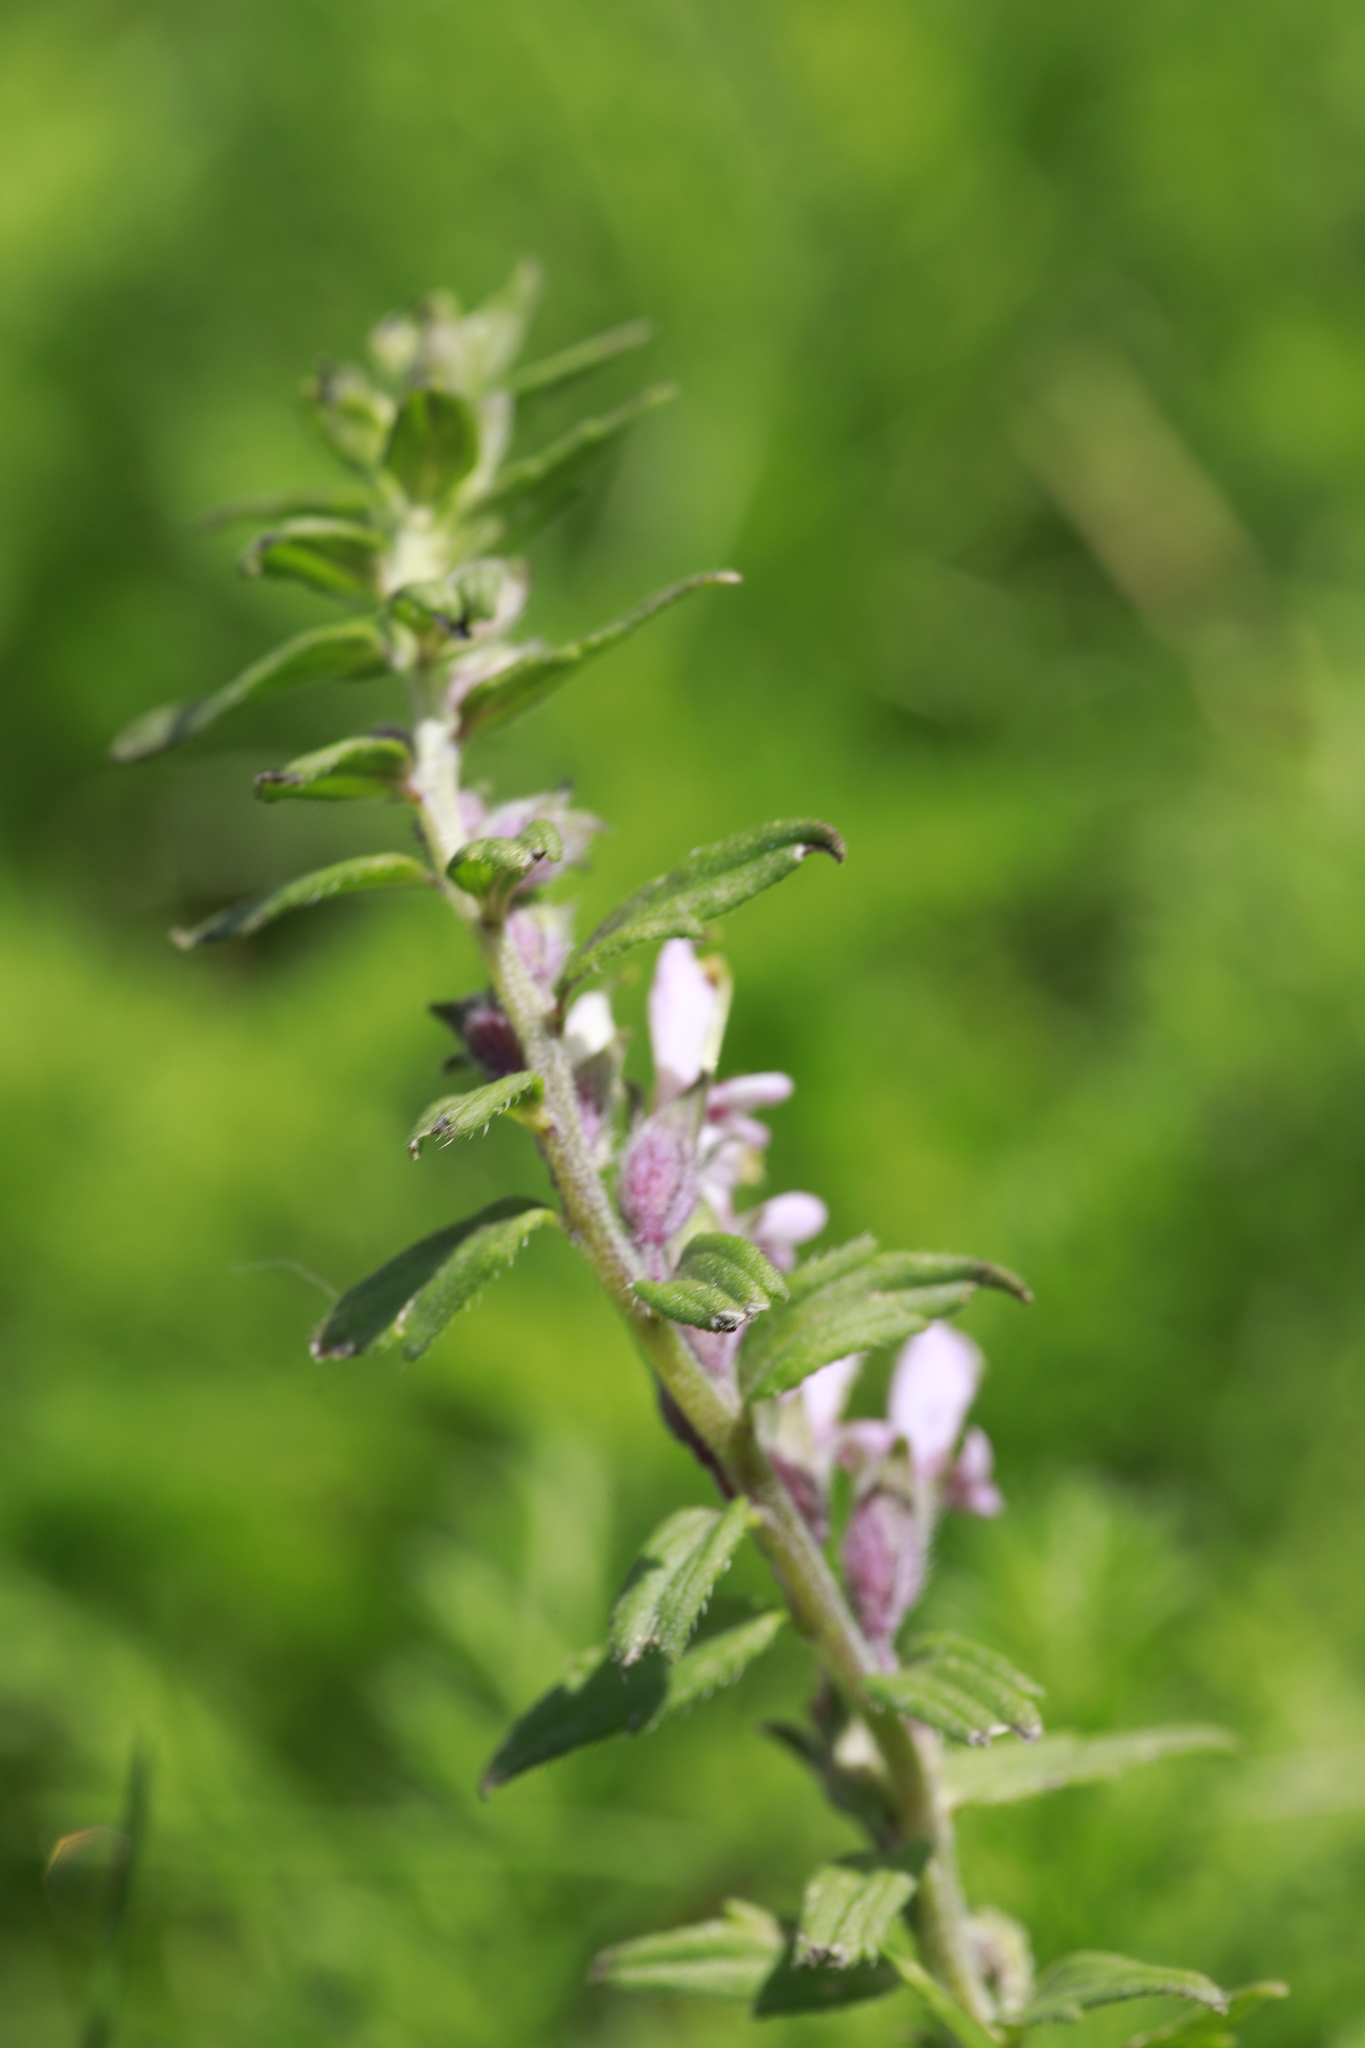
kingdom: Plantae
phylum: Tracheophyta
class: Magnoliopsida
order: Lamiales
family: Orobanchaceae
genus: Odontites
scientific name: Odontites vulgaris
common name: Broomrape
